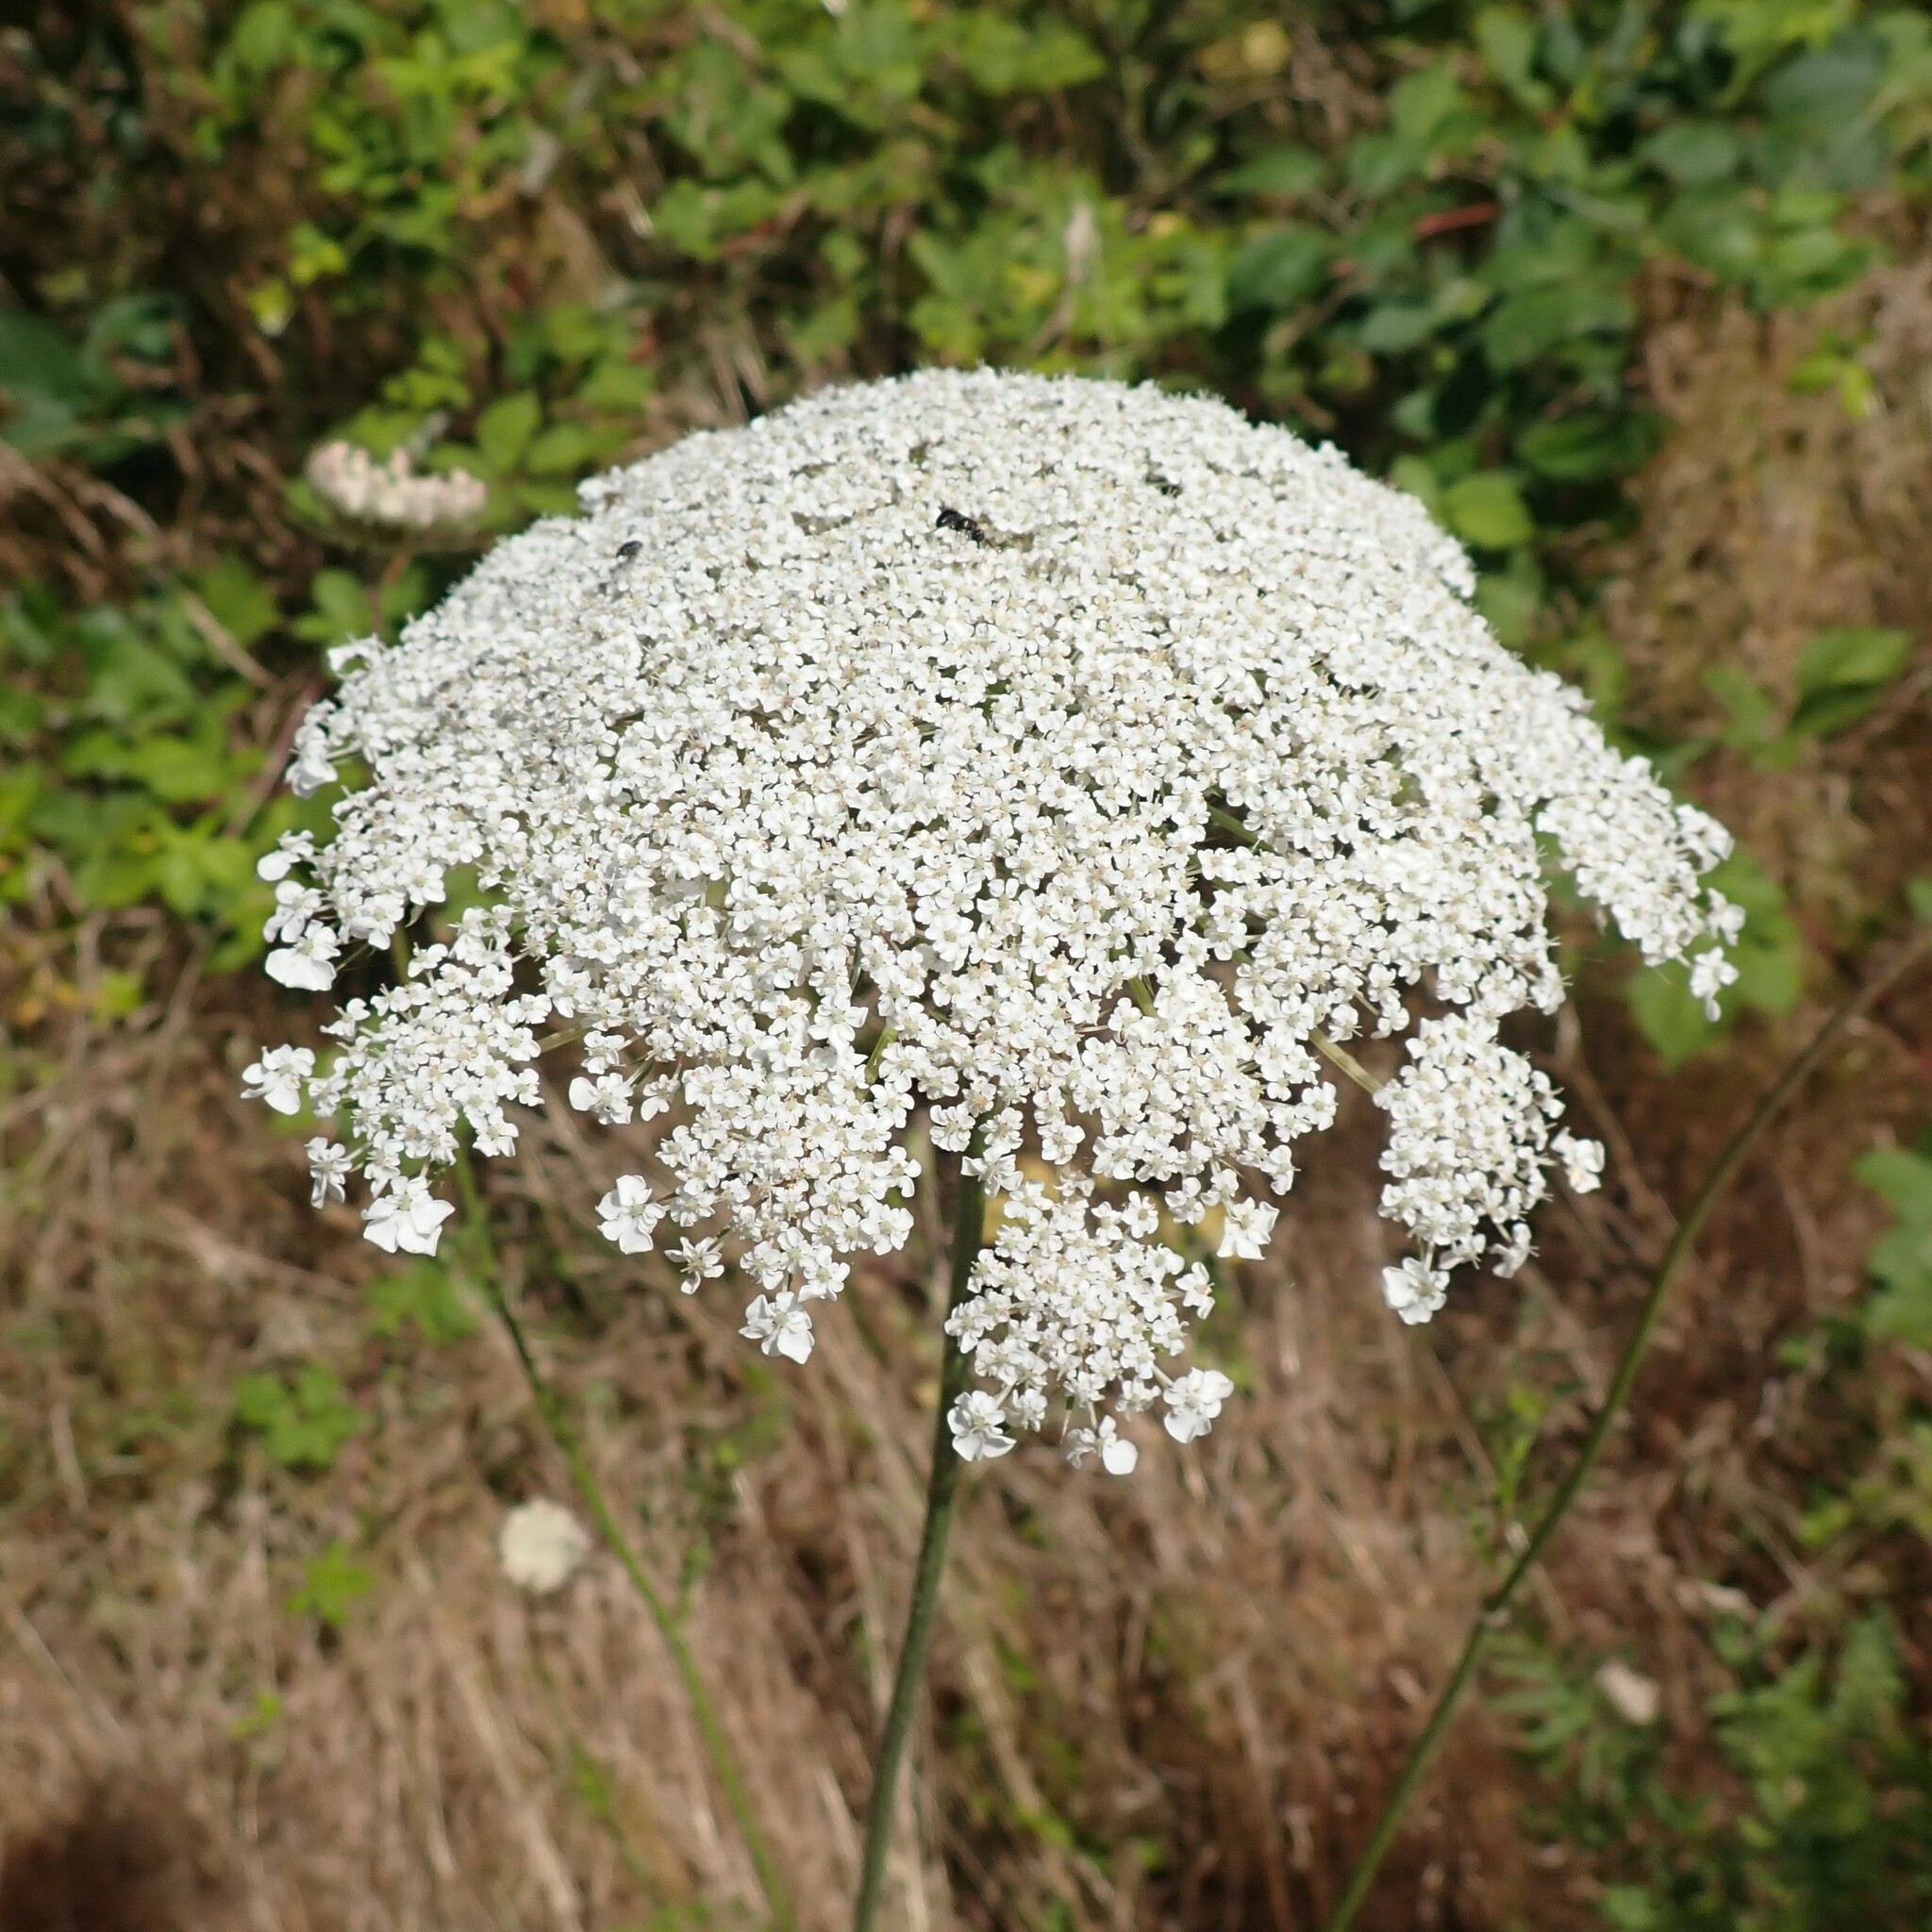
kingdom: Plantae
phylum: Tracheophyta
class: Magnoliopsida
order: Apiales
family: Apiaceae
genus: Daucus
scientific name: Daucus carota
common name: Wild carrot
